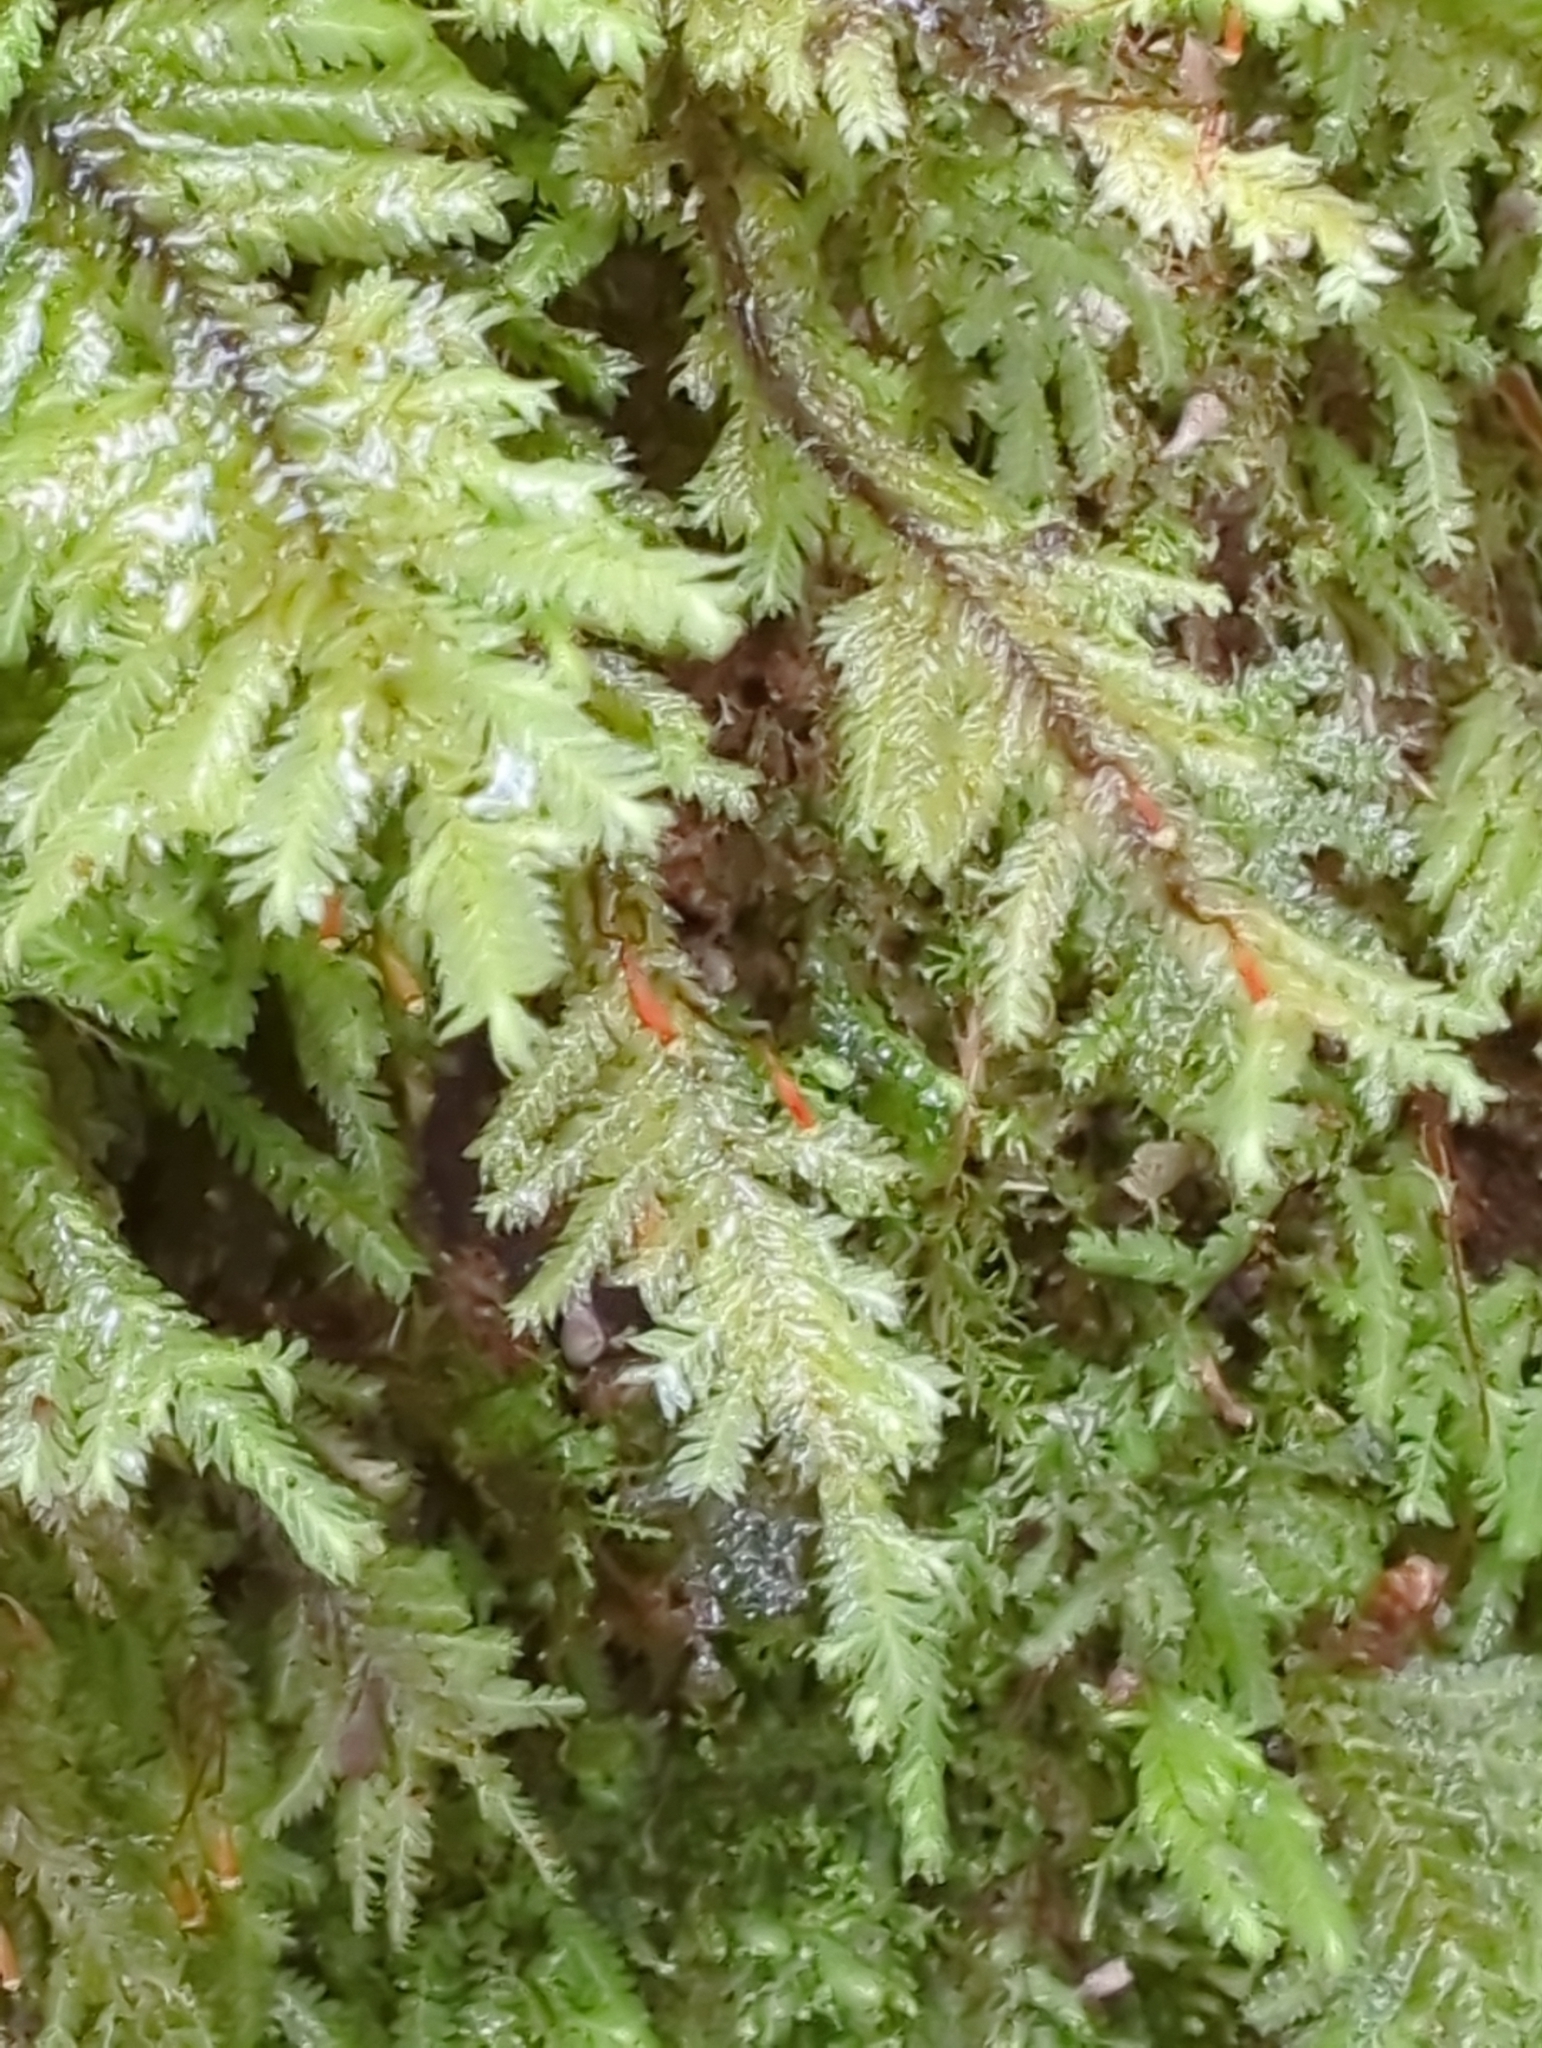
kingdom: Plantae
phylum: Bryophyta
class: Bryopsida
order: Hypopterygiales
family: Hypopterygiaceae
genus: Lopidium
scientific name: Lopidium concinnum
